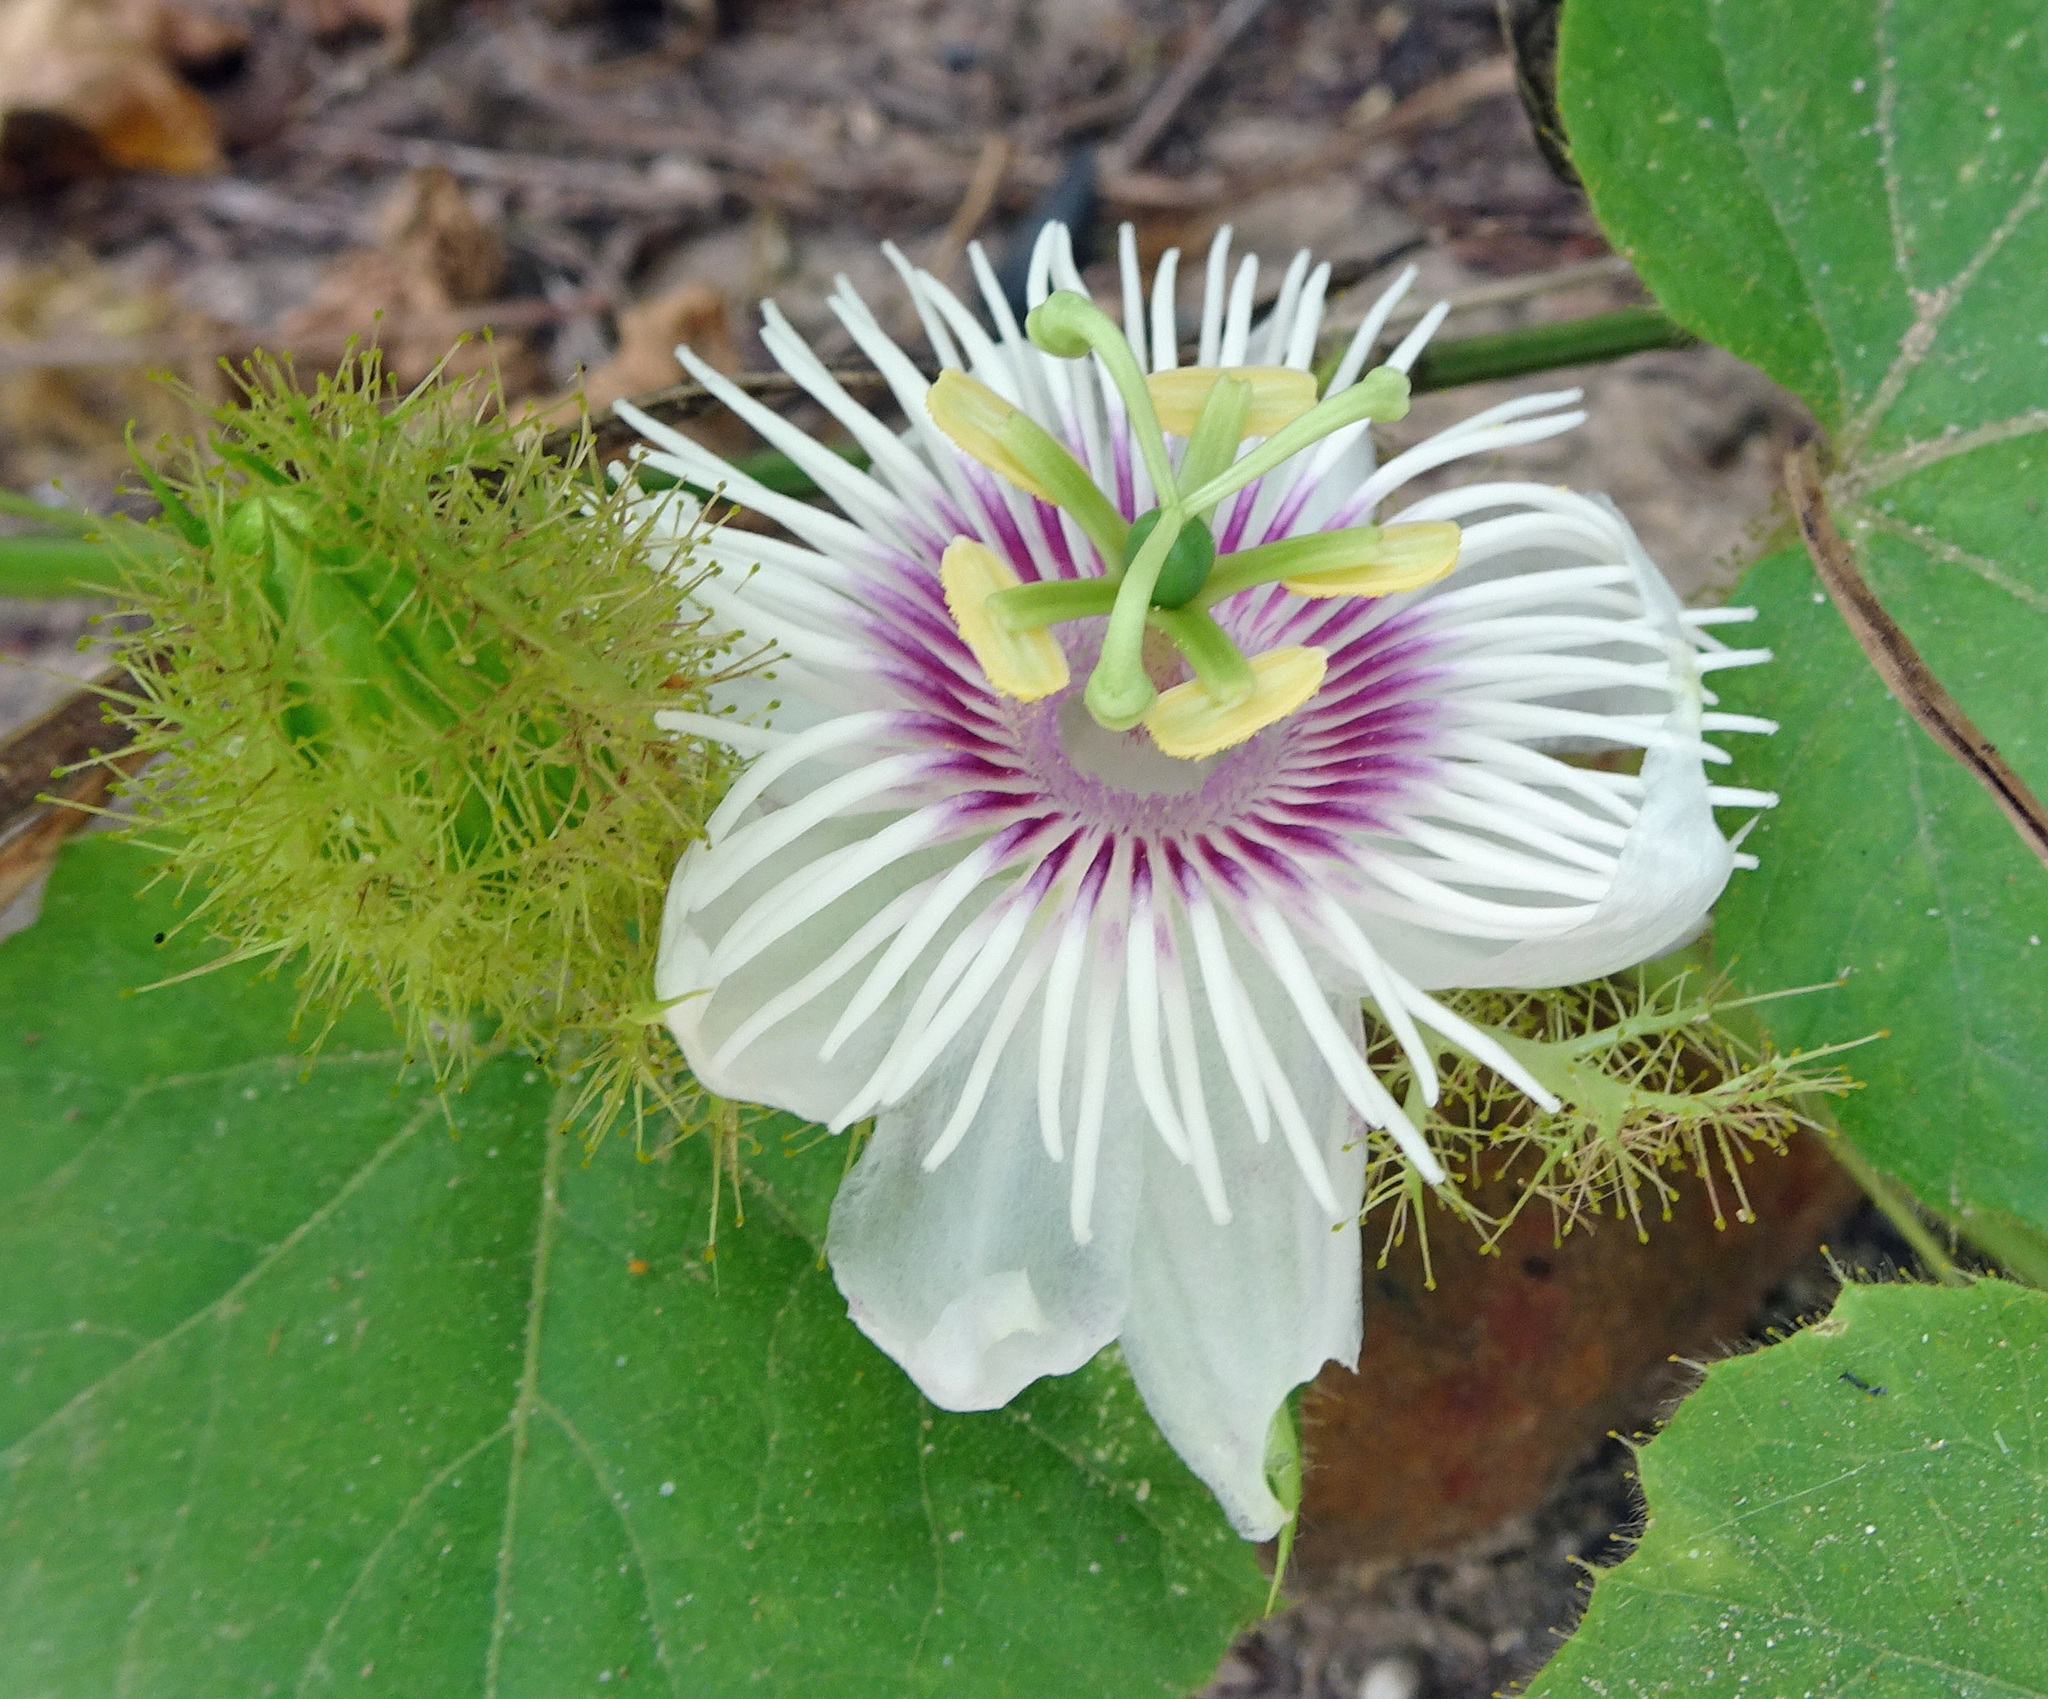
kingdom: Plantae
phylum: Tracheophyta
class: Magnoliopsida
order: Malpighiales
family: Passifloraceae
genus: Passiflora
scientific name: Passiflora foetida
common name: Fetid passionflower
